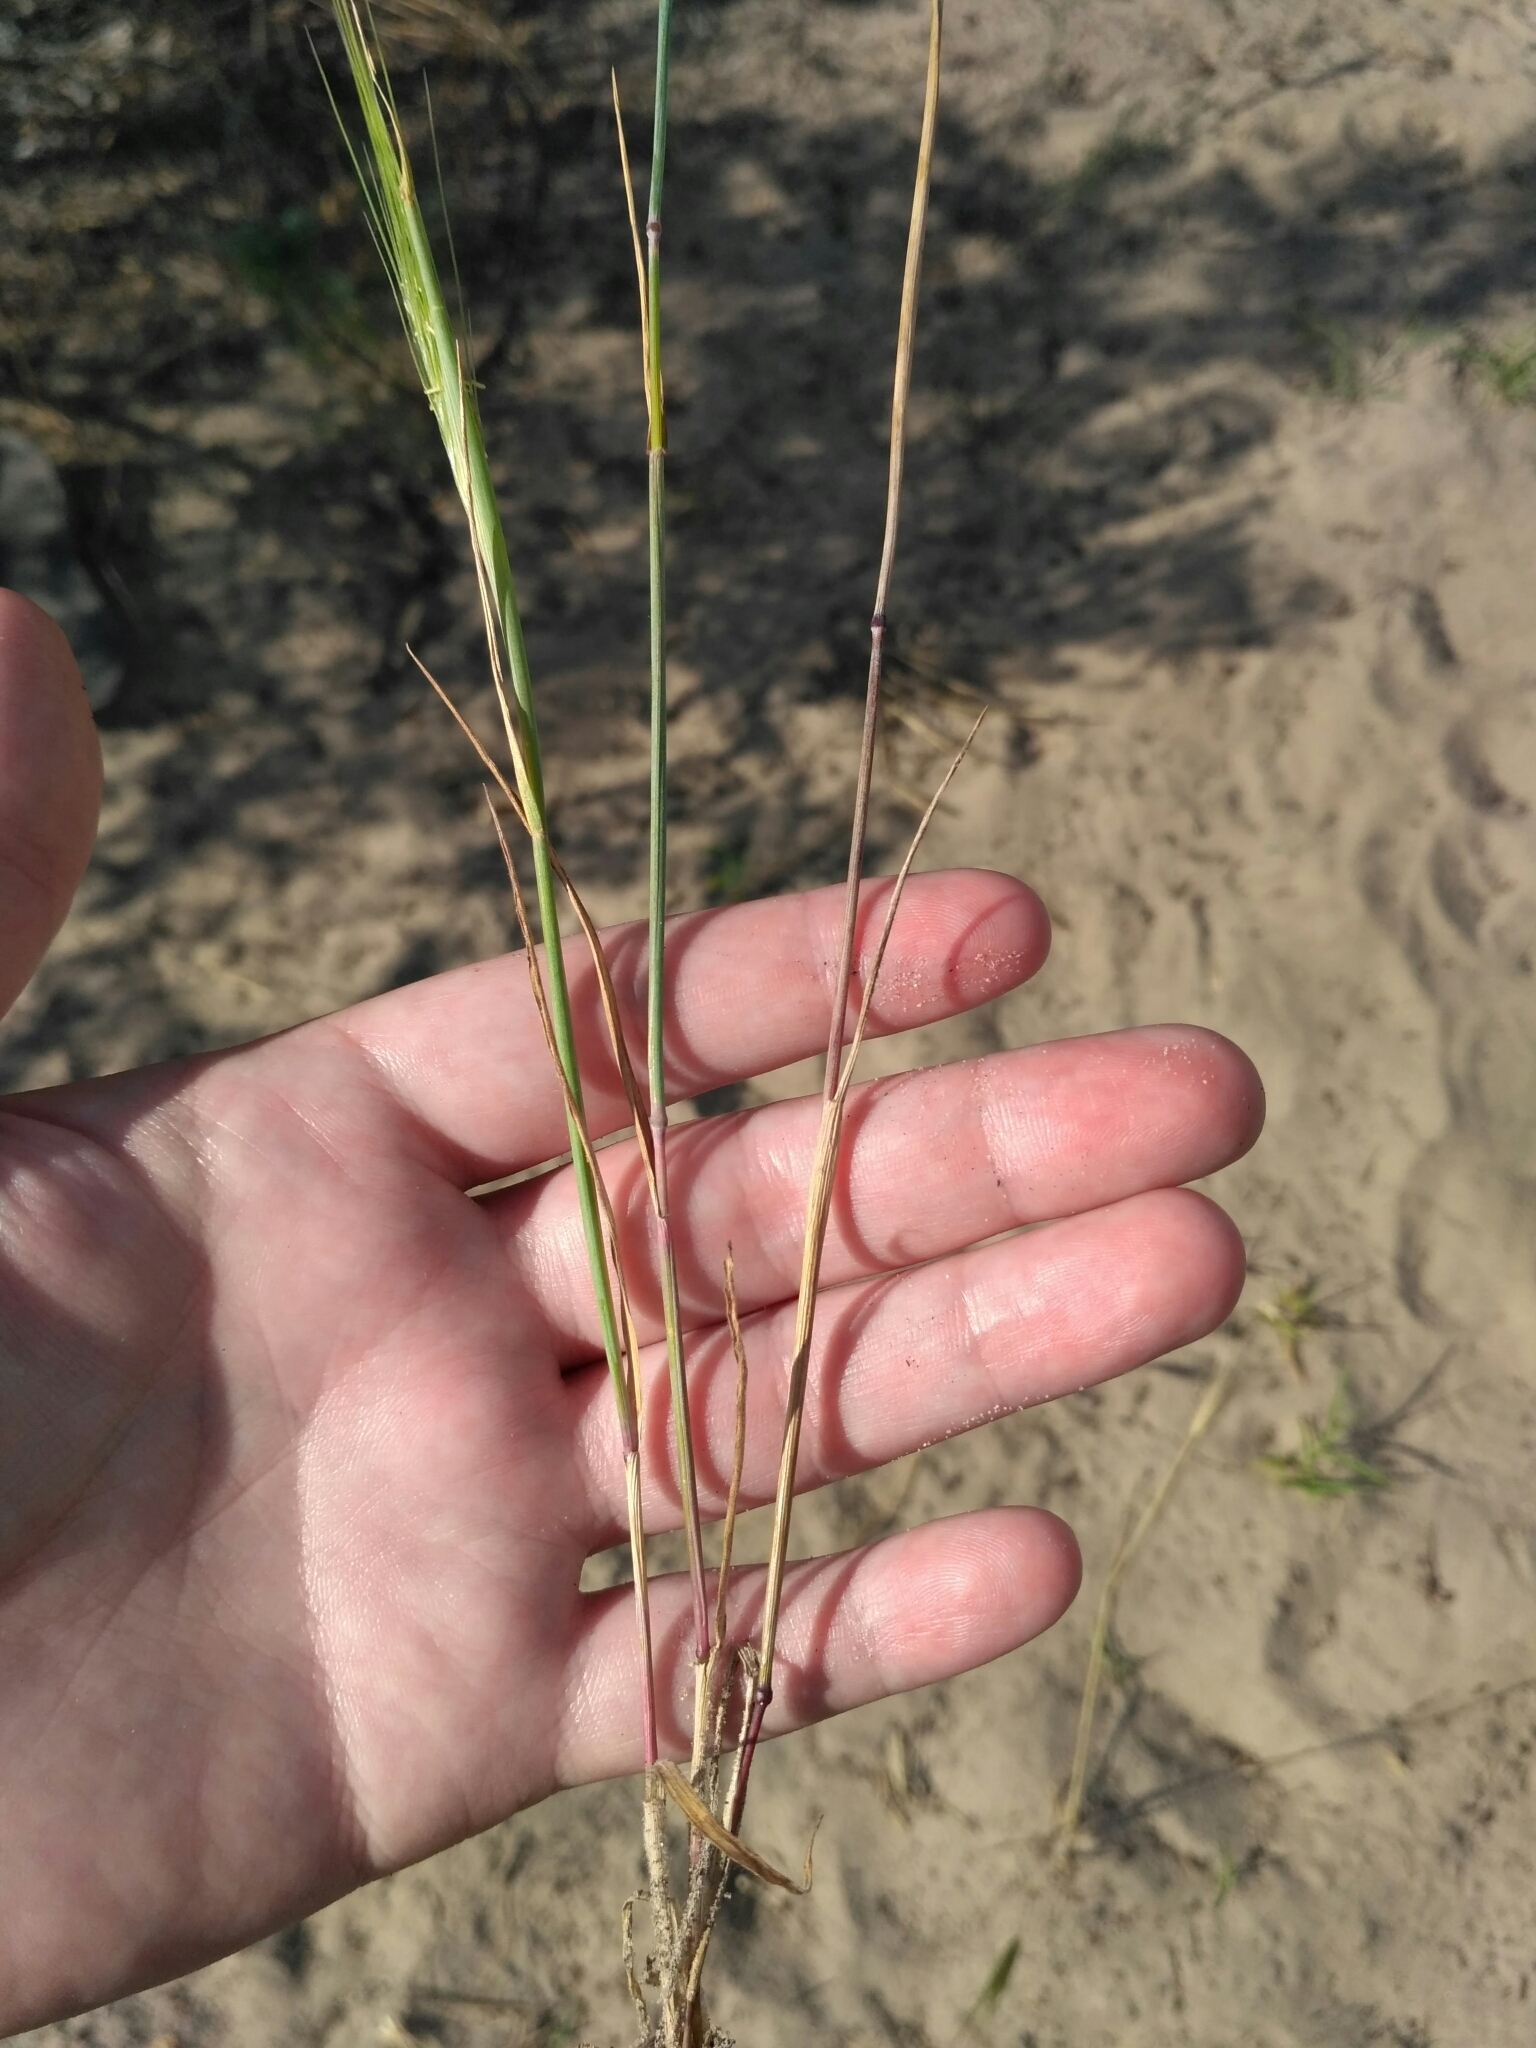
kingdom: Plantae
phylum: Tracheophyta
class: Liliopsida
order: Poales
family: Poaceae
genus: Secale
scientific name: Secale sylvestre
